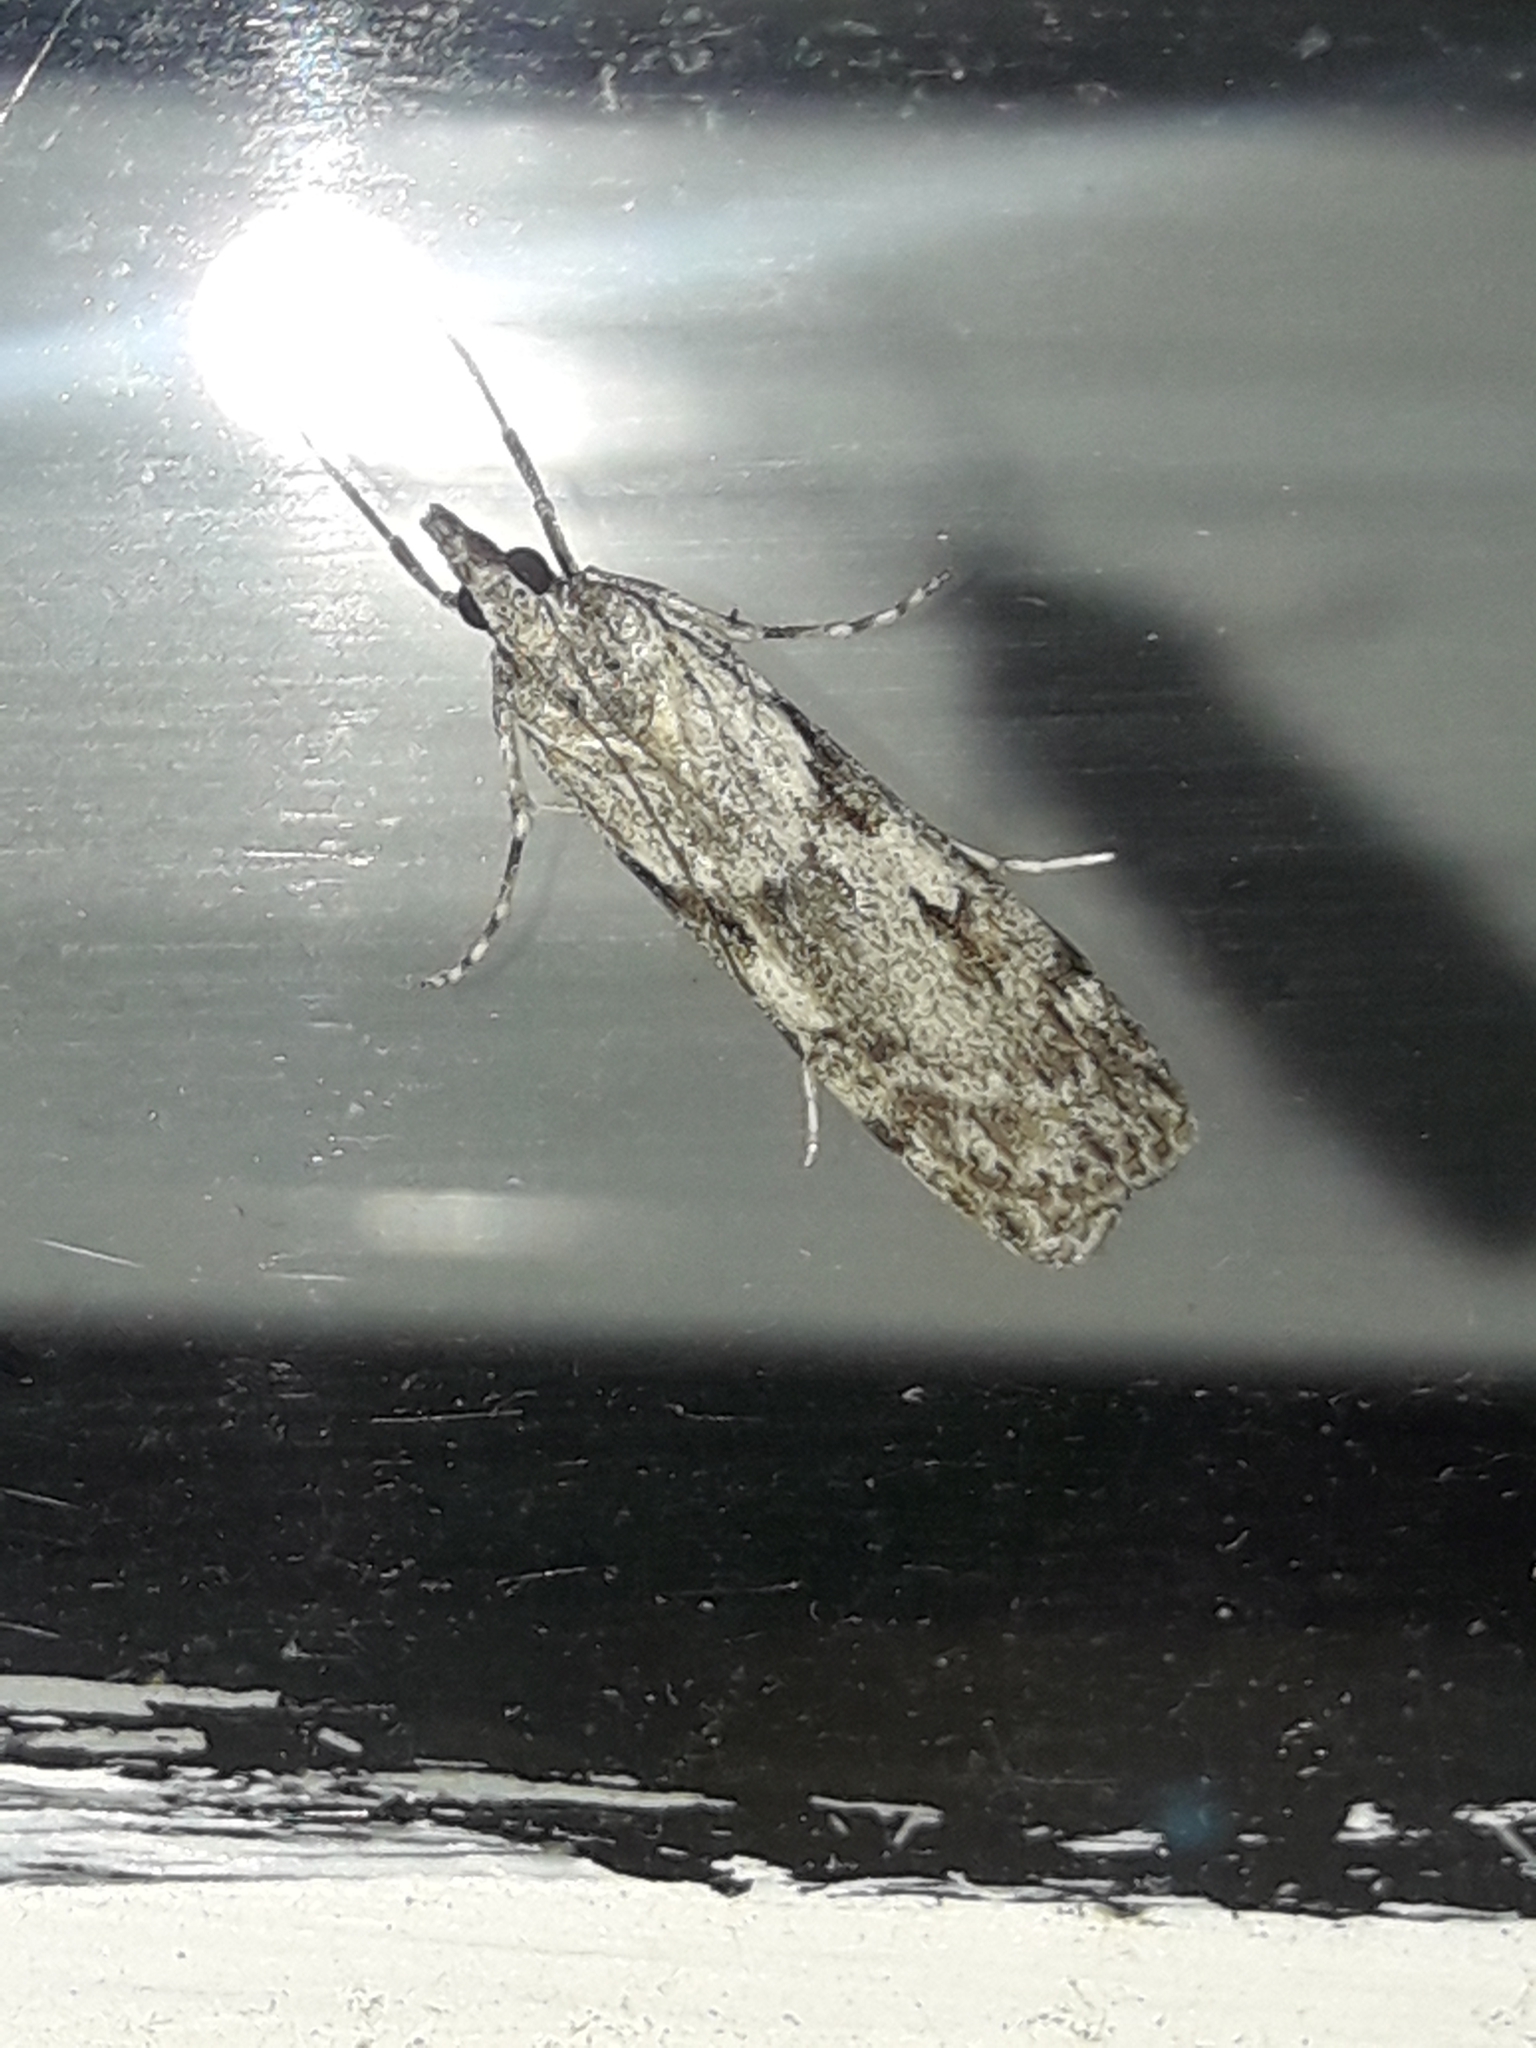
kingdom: Animalia
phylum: Arthropoda
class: Insecta
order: Lepidoptera
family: Crambidae
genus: Scoparia
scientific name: Scoparia halopis
